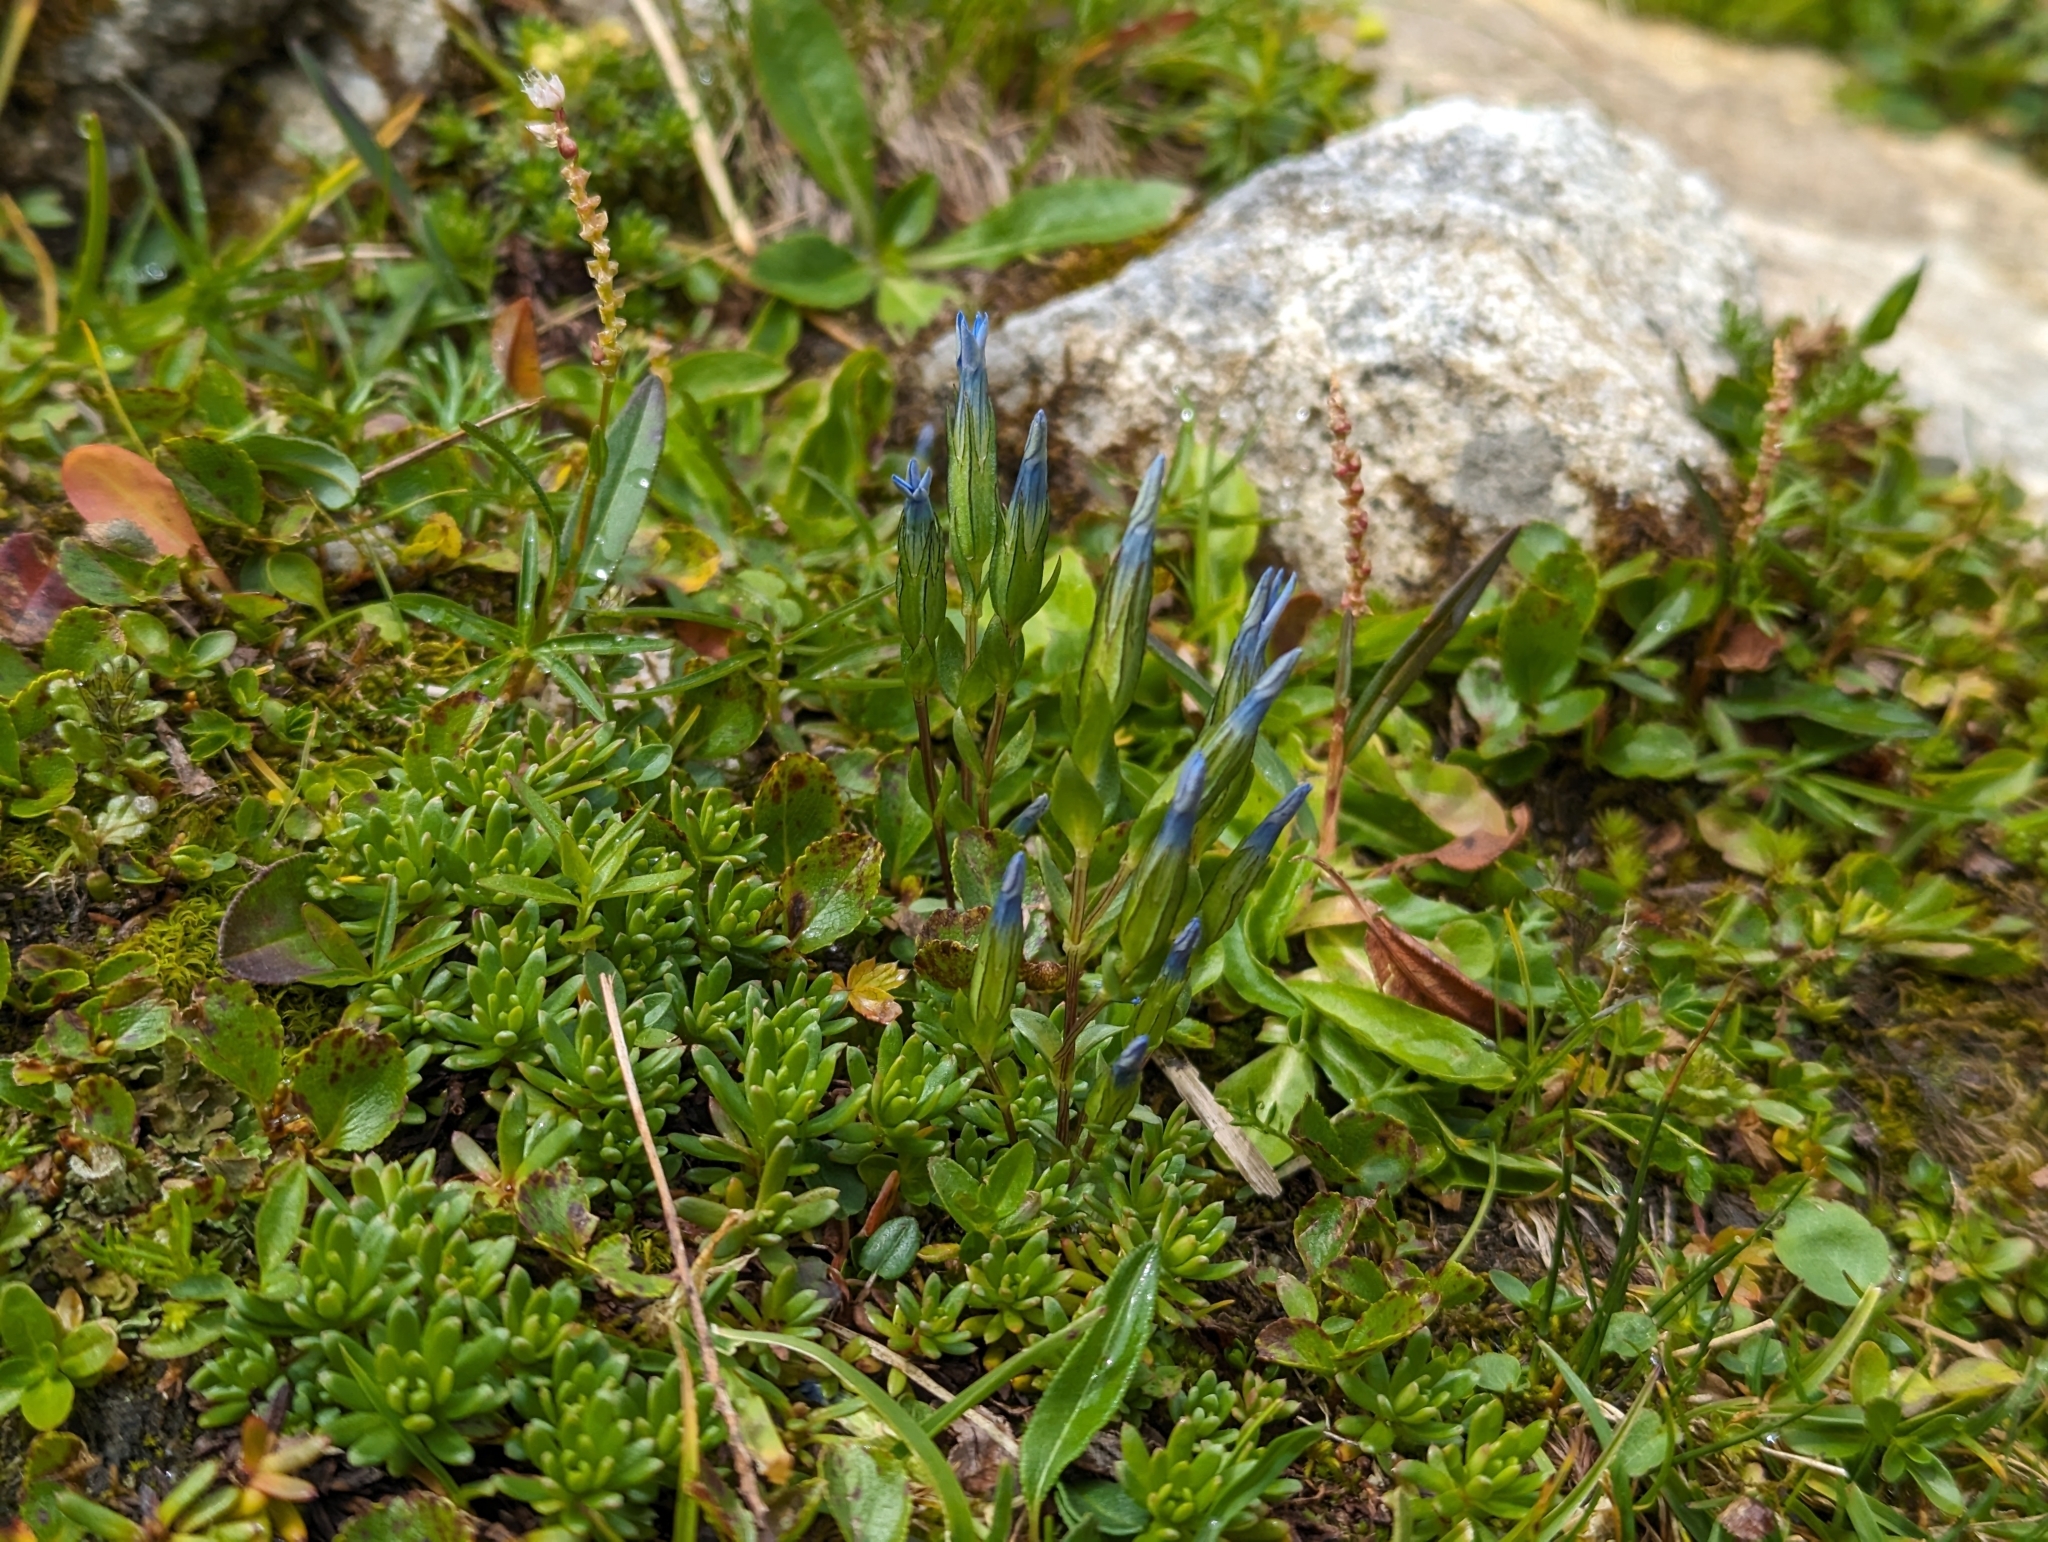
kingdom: Plantae
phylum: Tracheophyta
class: Magnoliopsida
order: Gentianales
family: Gentianaceae
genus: Gentiana
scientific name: Gentiana nivalis
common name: Alpine gentian
